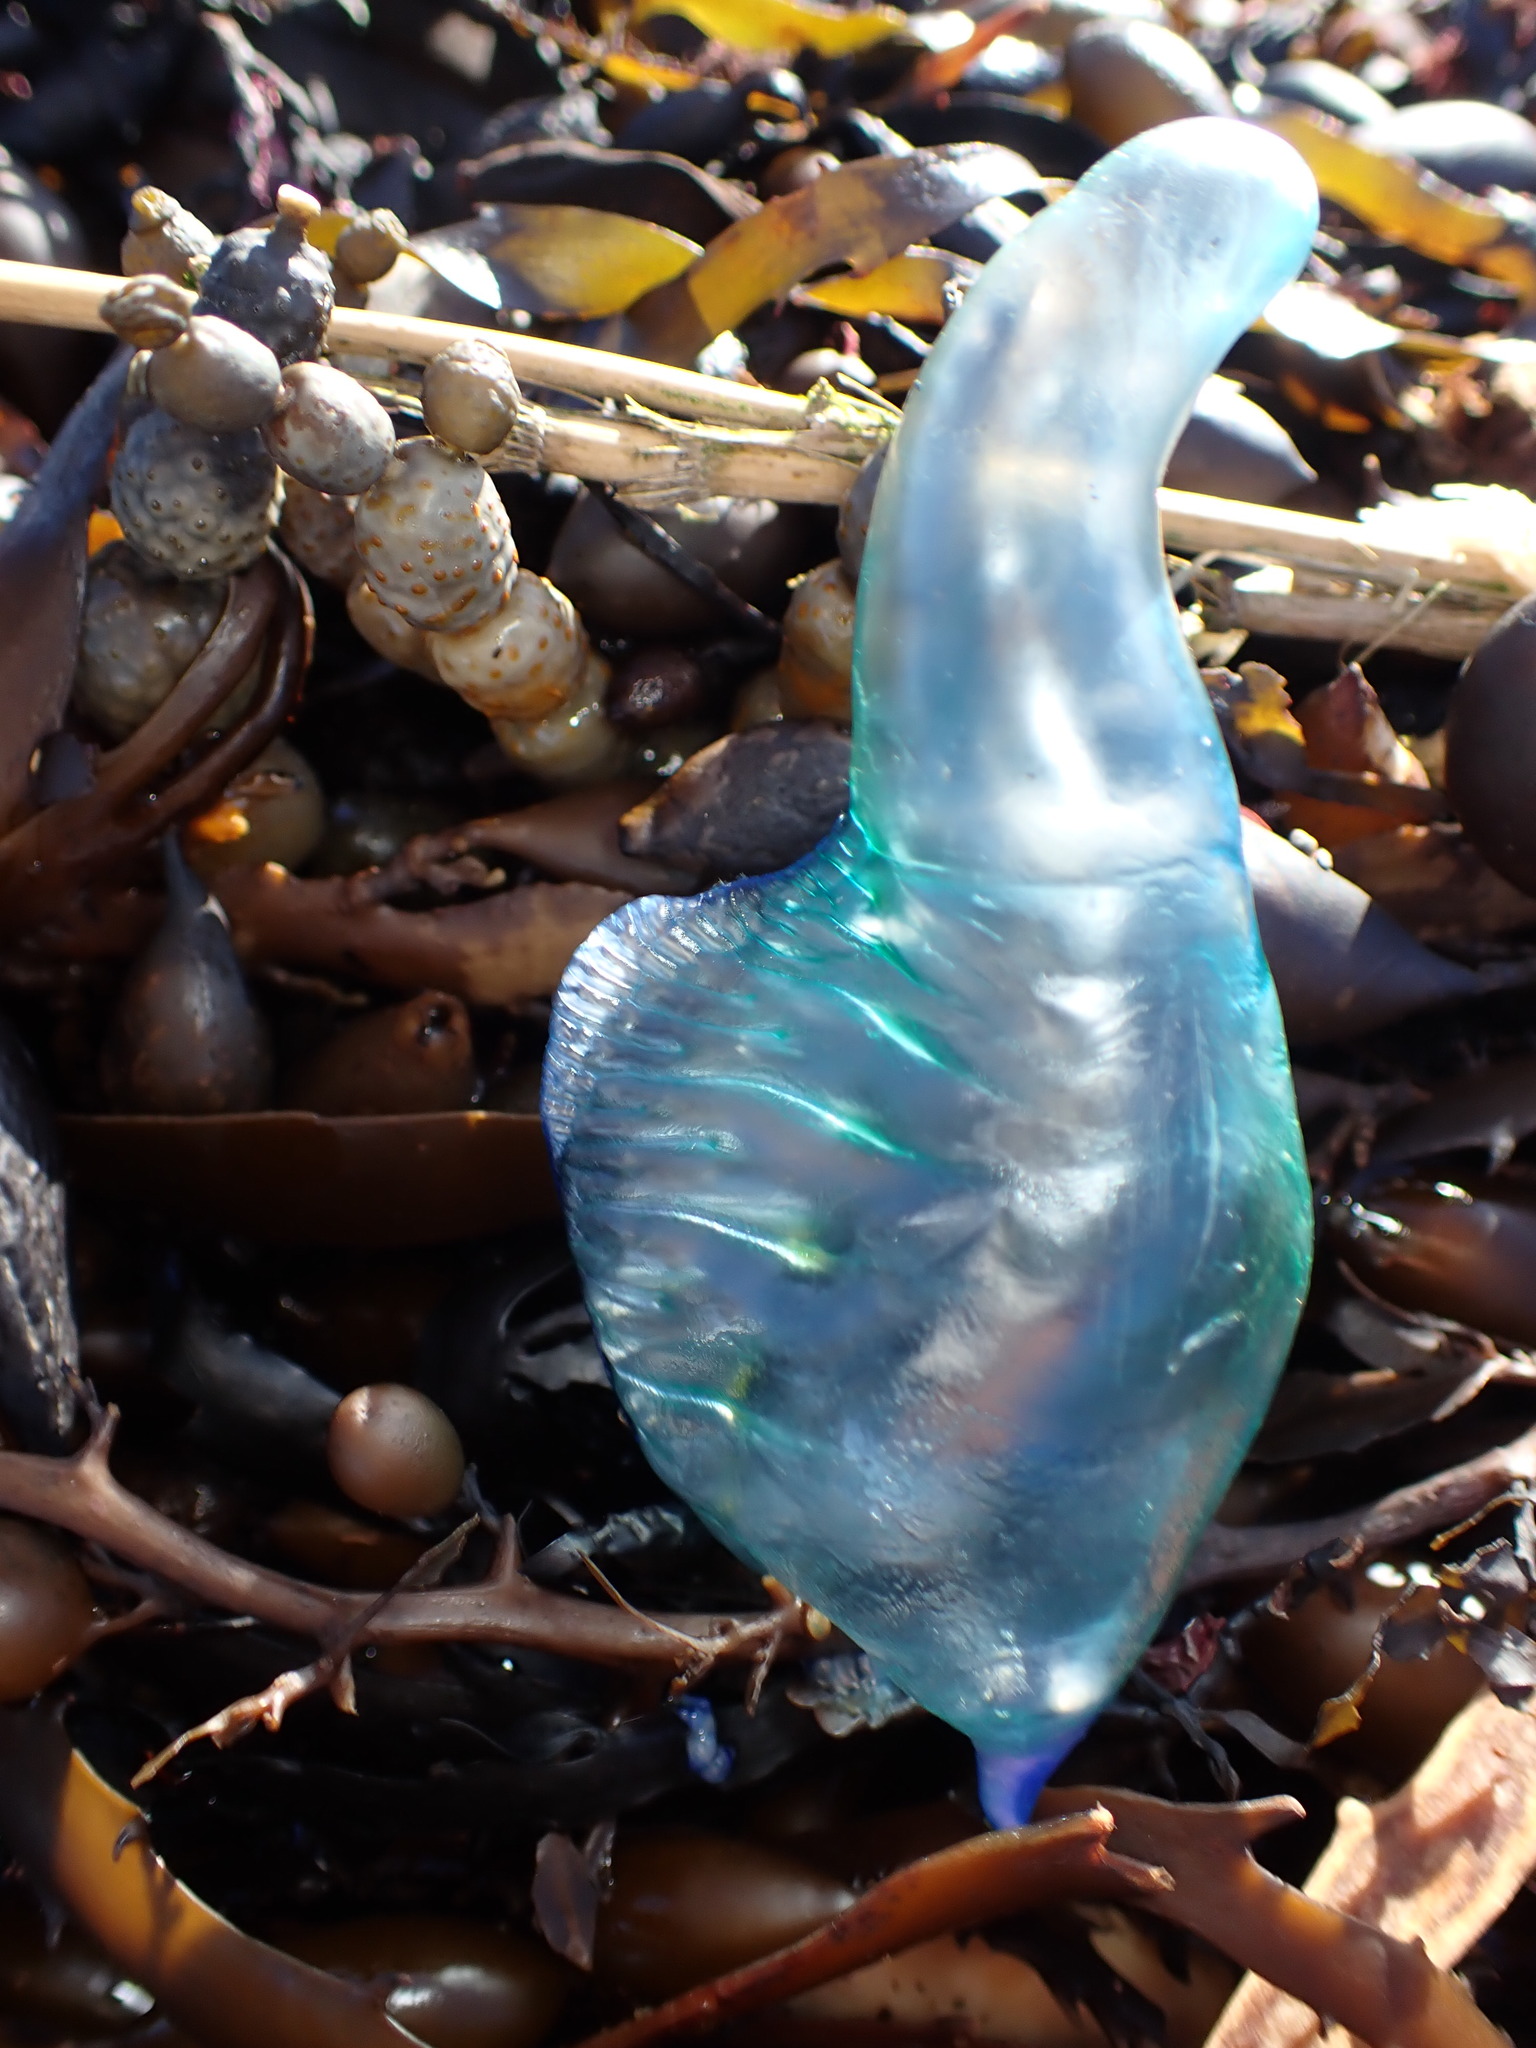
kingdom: Animalia
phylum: Cnidaria
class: Hydrozoa
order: Siphonophorae
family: Physaliidae
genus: Physalia
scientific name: Physalia physalis
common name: Portuguese man-of-war
